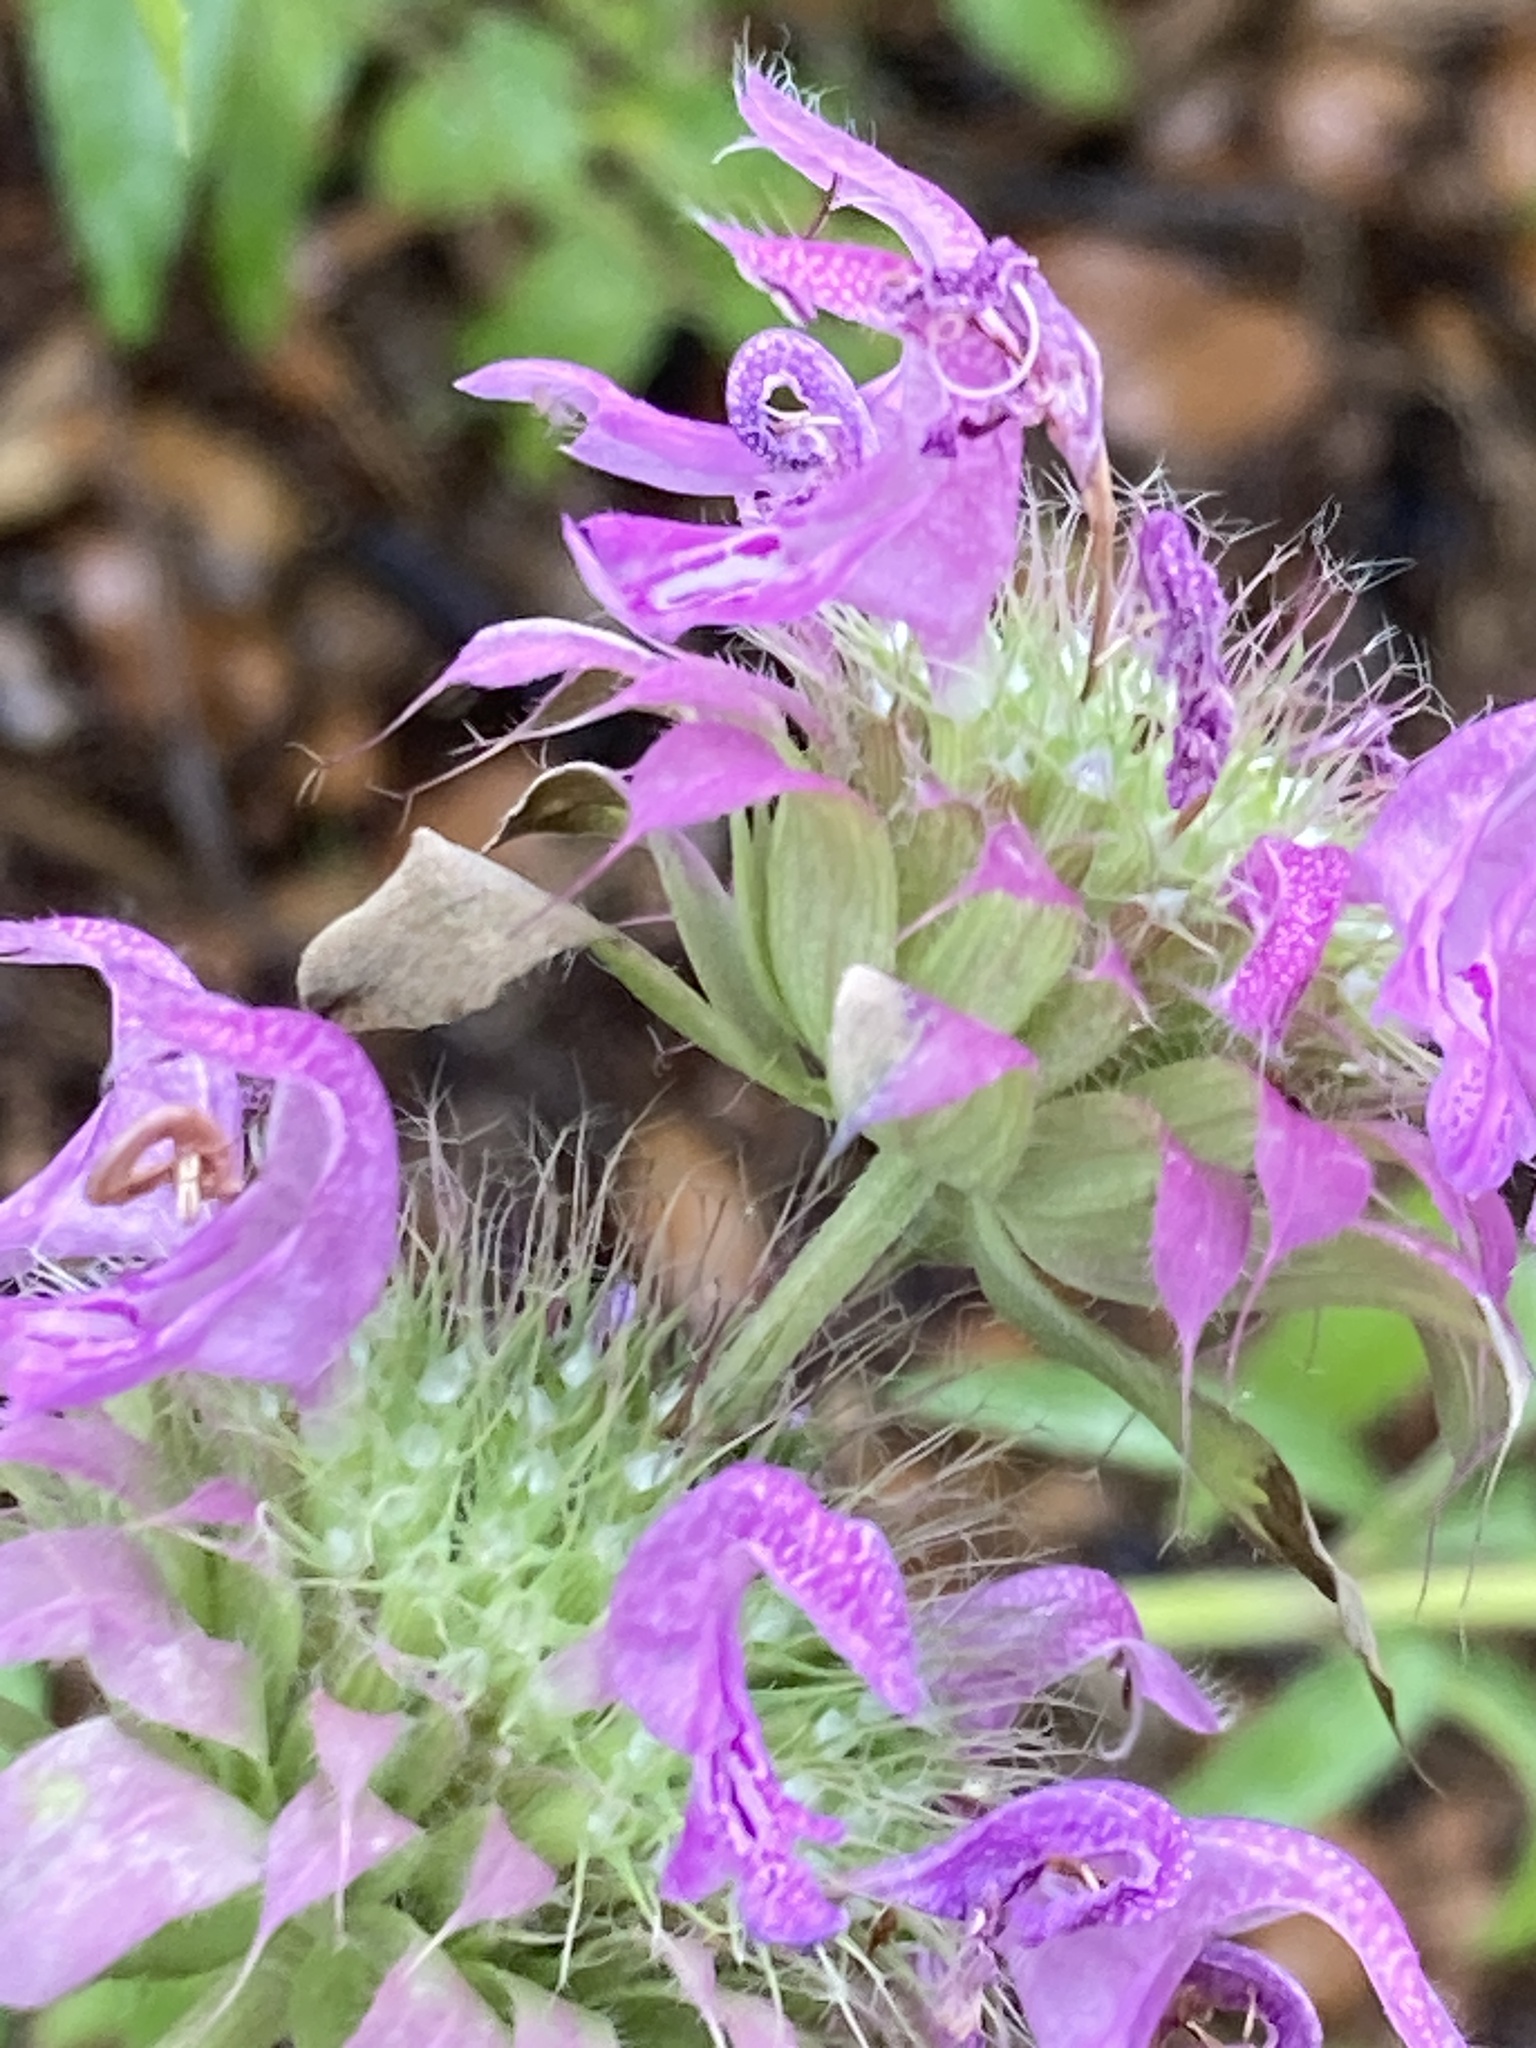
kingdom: Plantae
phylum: Tracheophyta
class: Magnoliopsida
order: Lamiales
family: Lamiaceae
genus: Monarda
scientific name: Monarda citriodora
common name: Lemon beebalm
